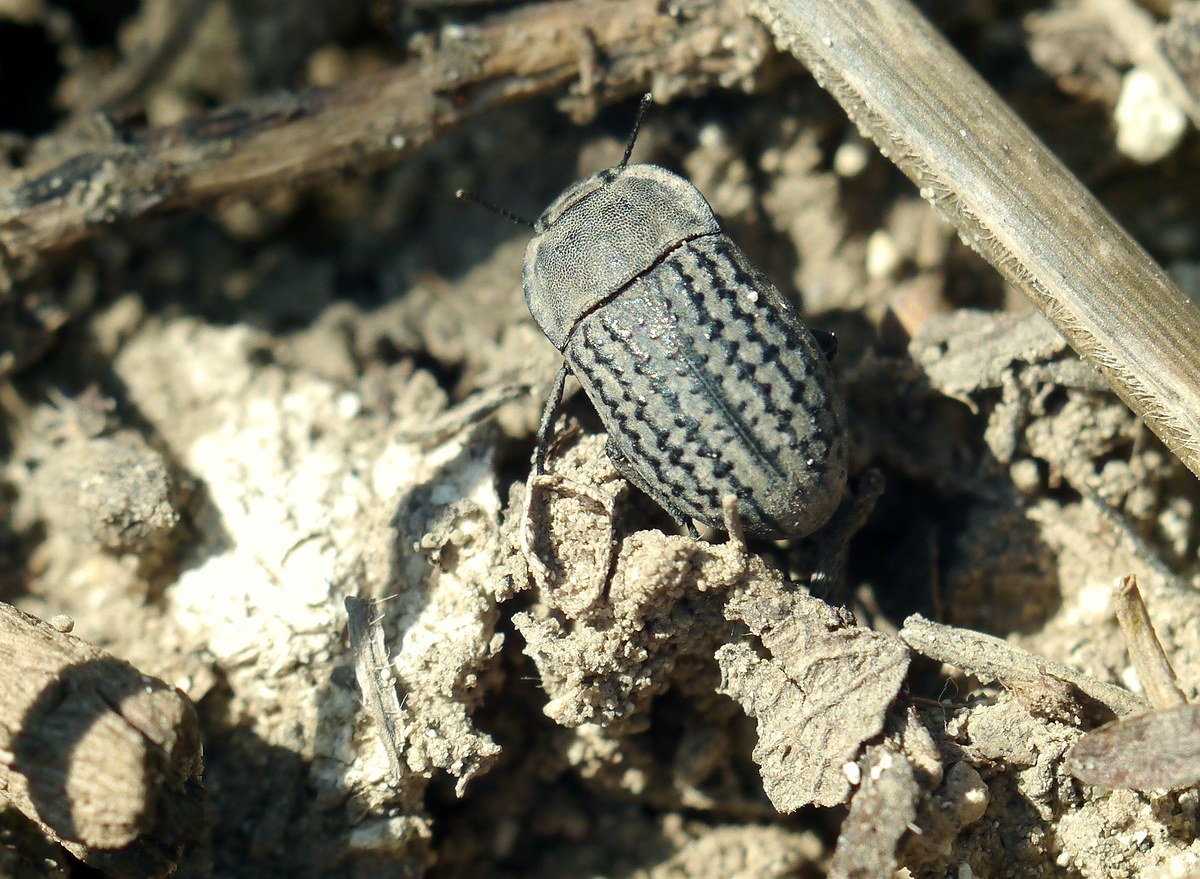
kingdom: Animalia
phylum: Arthropoda
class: Insecta
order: Coleoptera
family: Tenebrionidae
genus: Opatrum
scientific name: Opatrum sabulosum
